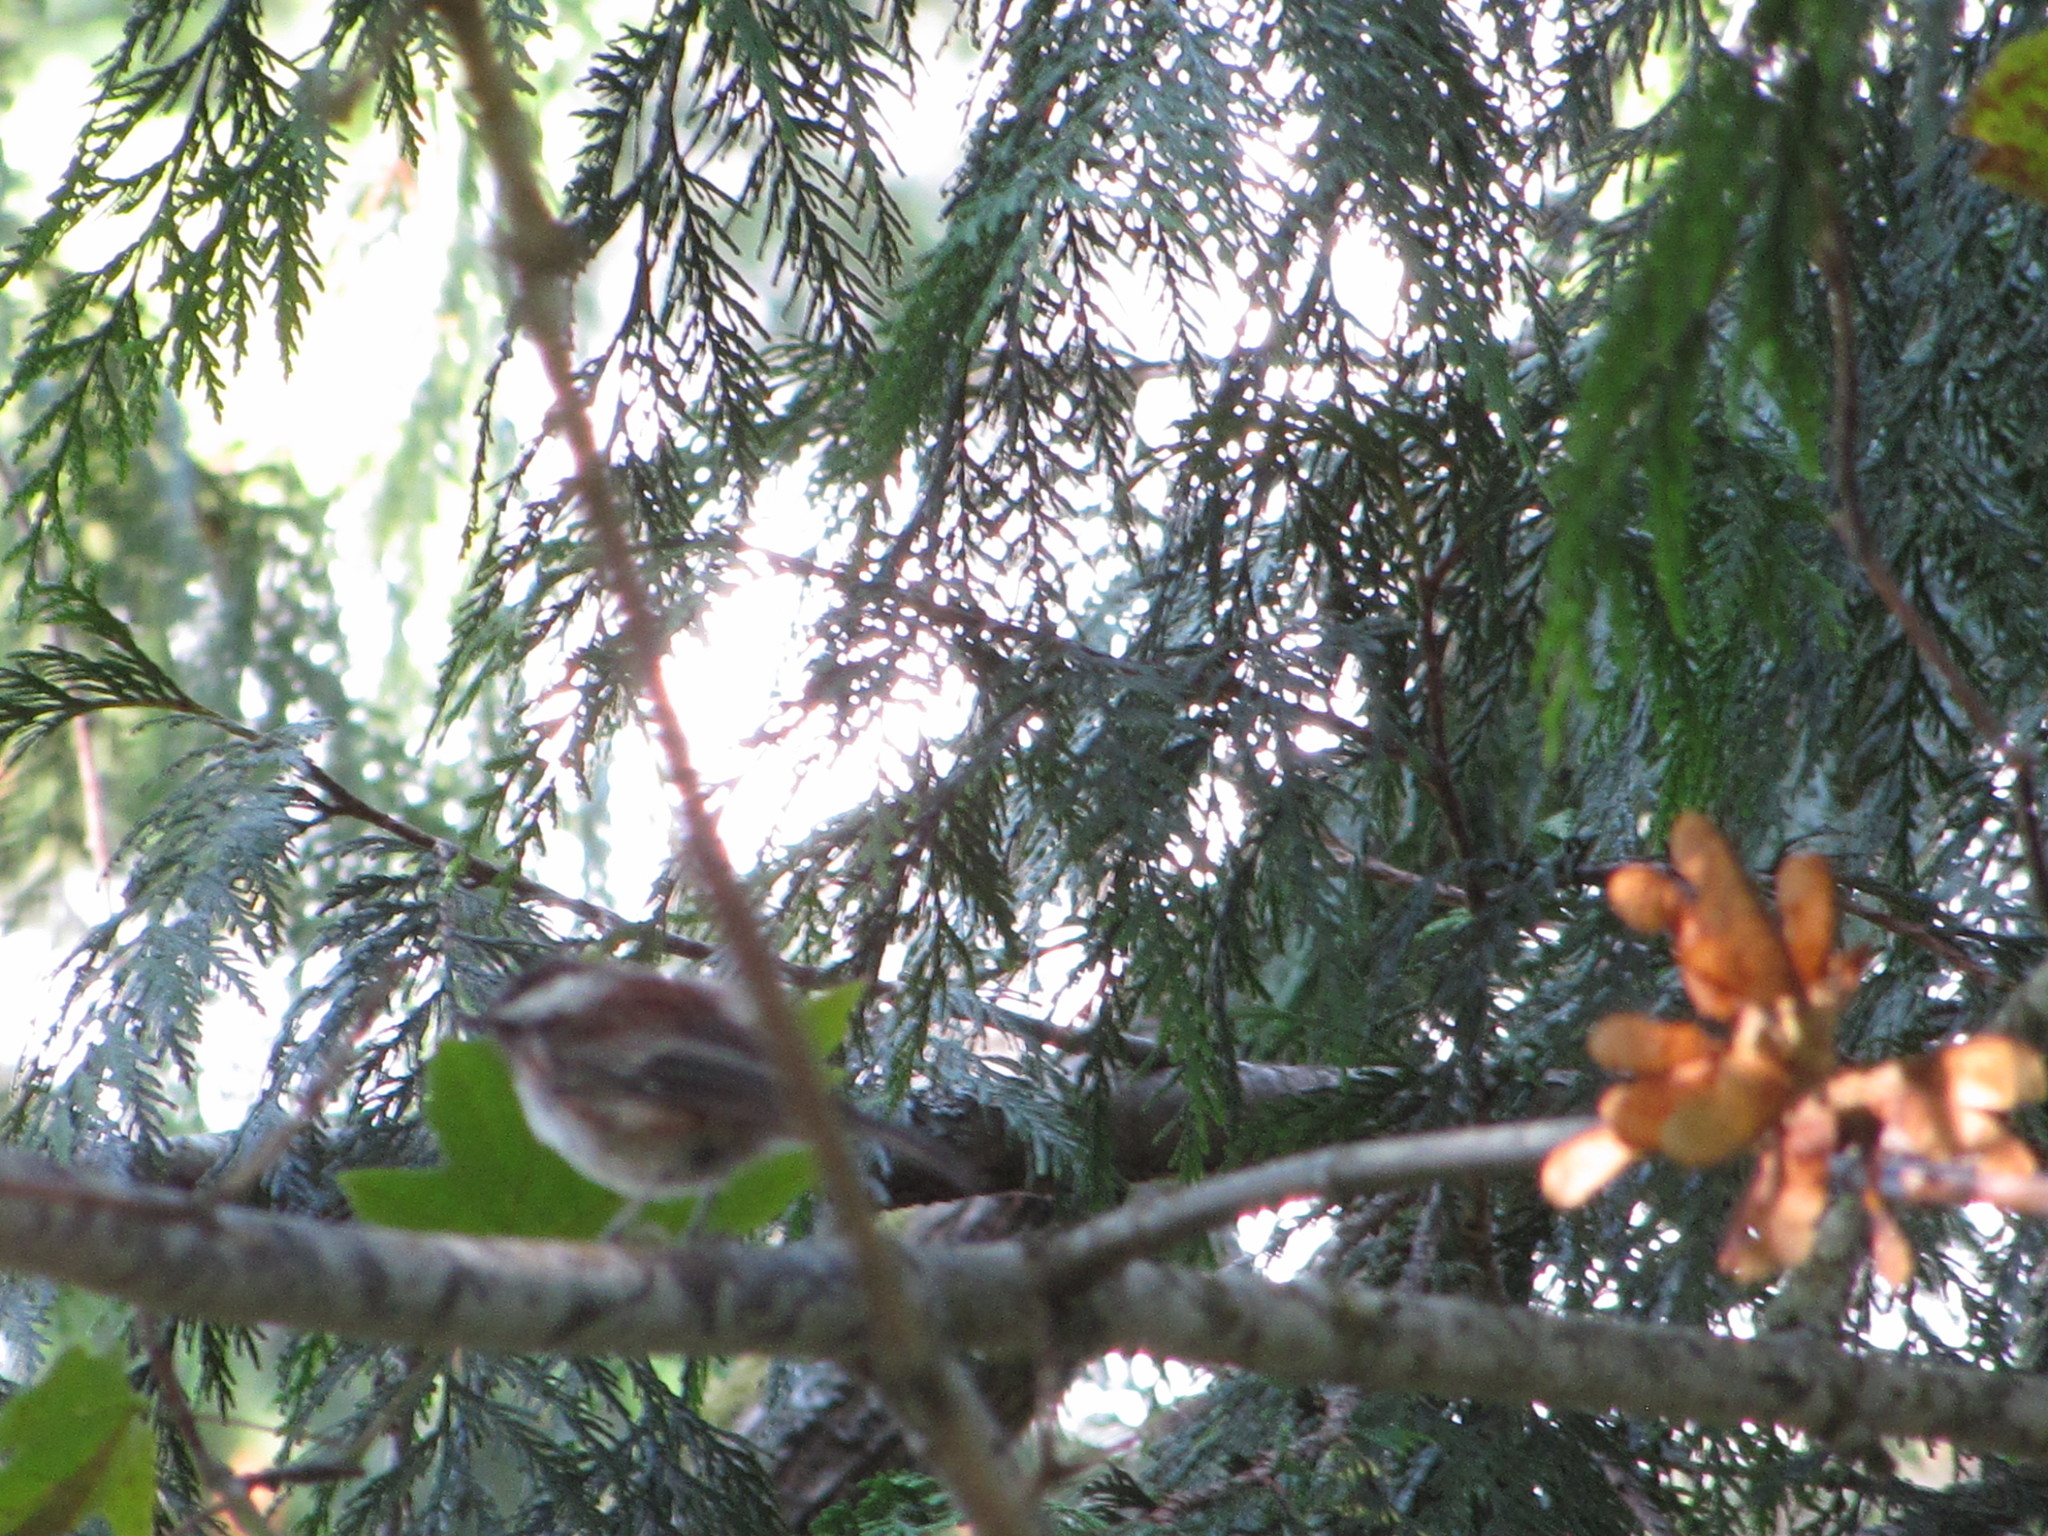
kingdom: Animalia
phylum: Chordata
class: Aves
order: Passeriformes
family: Paridae
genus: Poecile
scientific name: Poecile rufescens
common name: Chestnut-backed chickadee
